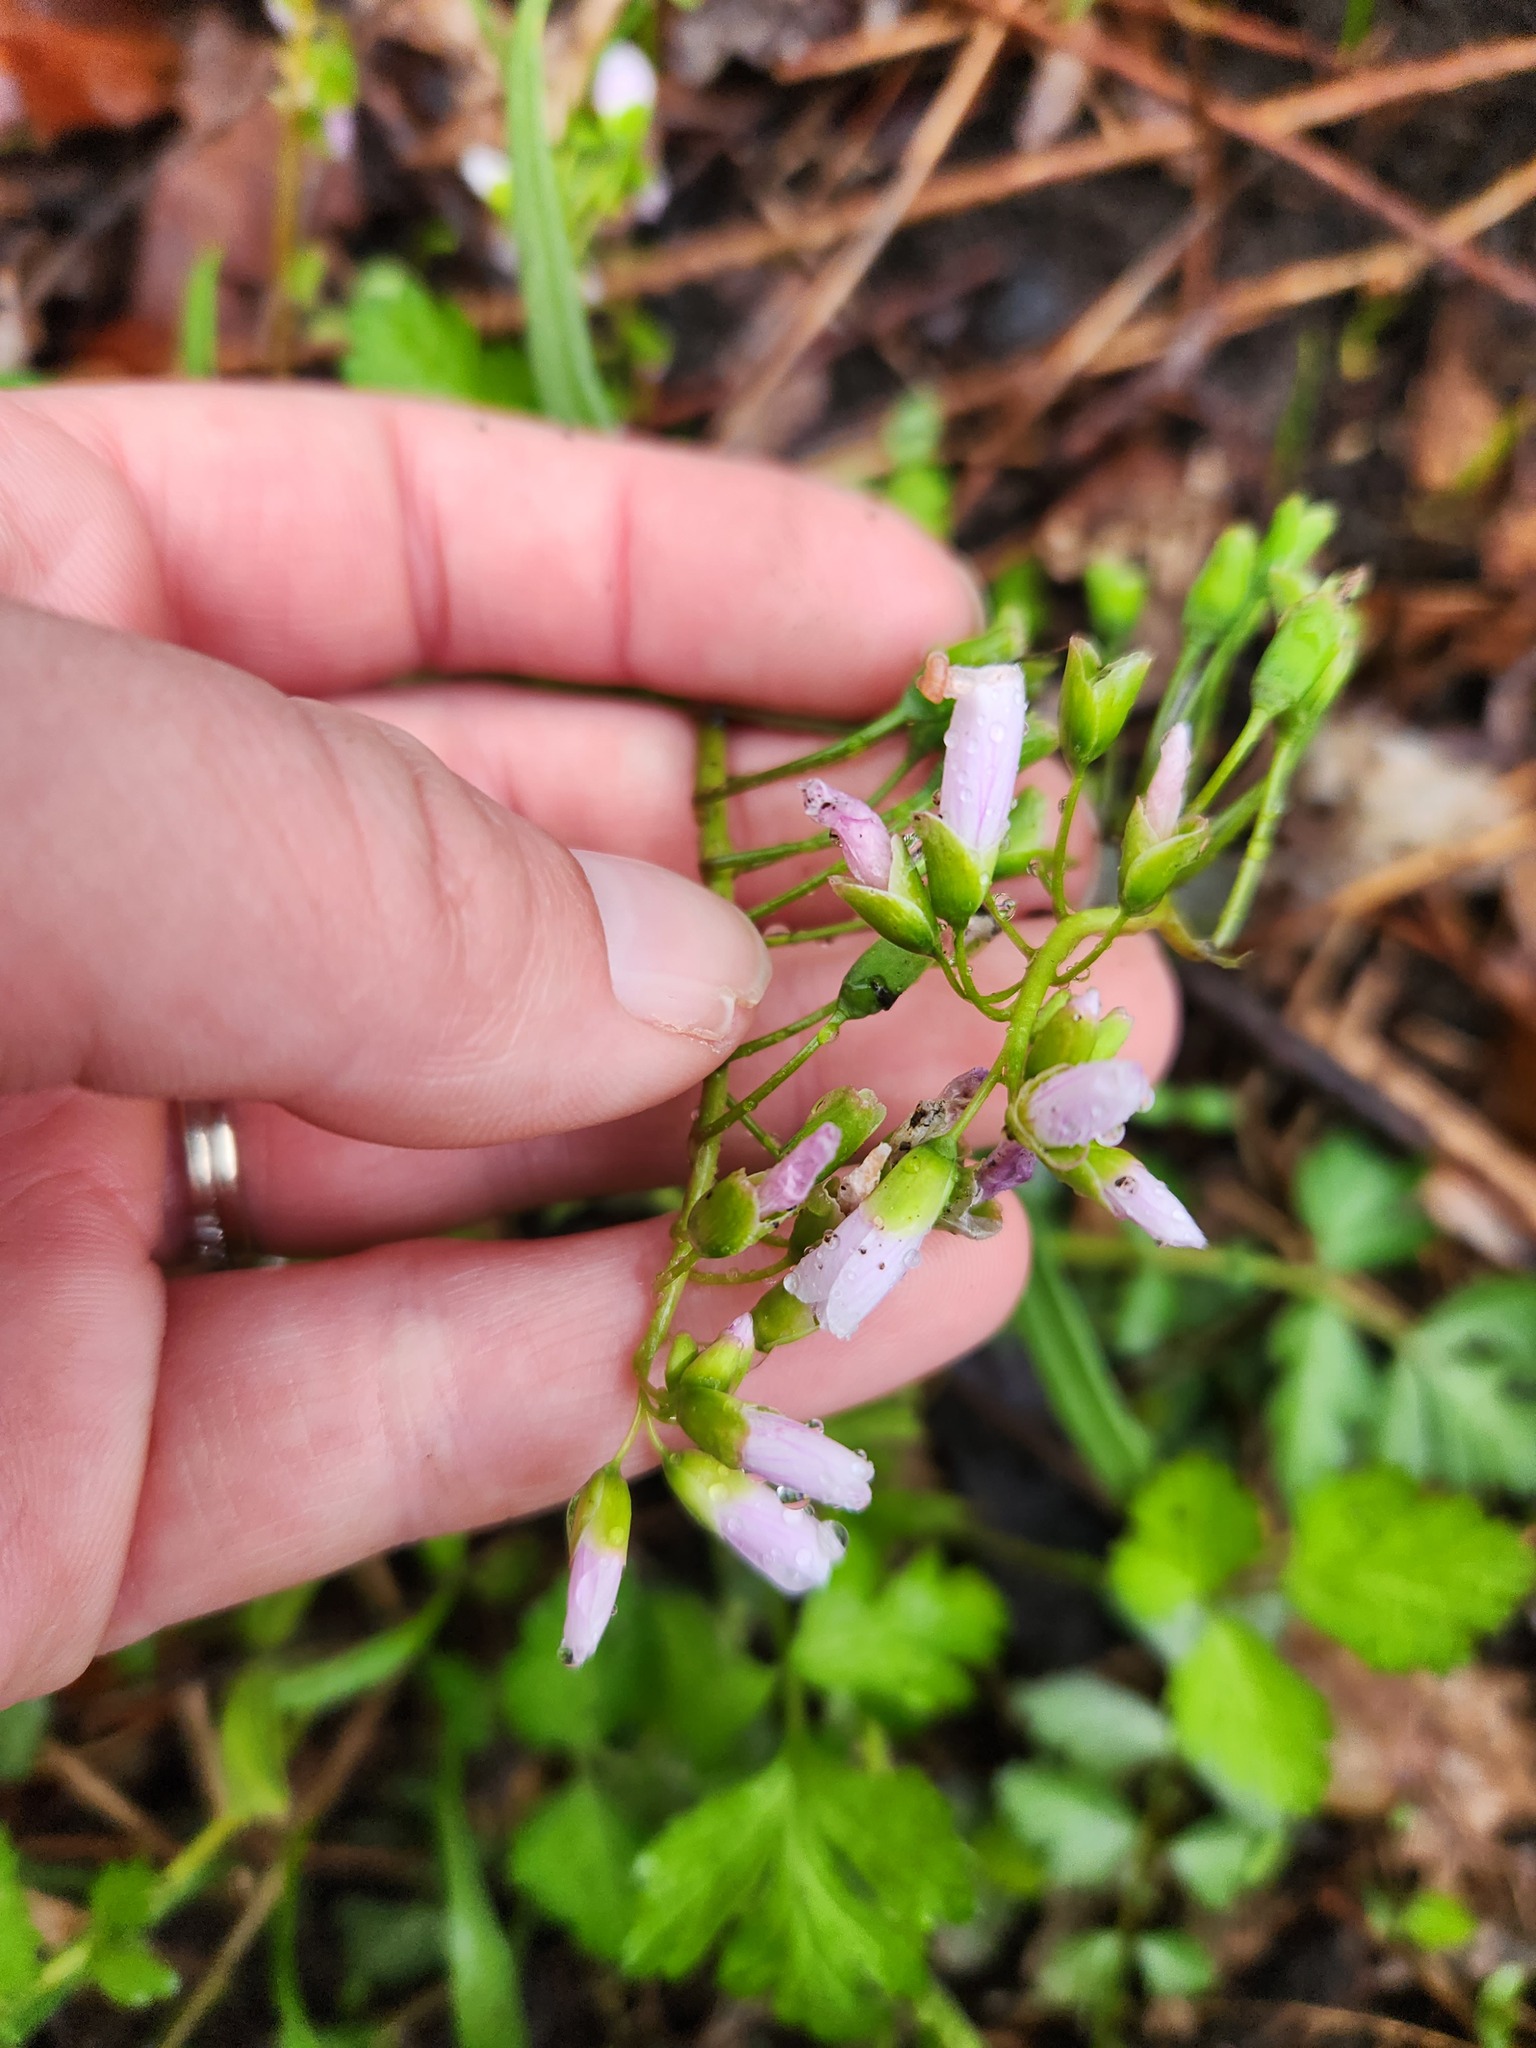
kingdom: Plantae
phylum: Tracheophyta
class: Magnoliopsida
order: Caryophyllales
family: Montiaceae
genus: Claytonia
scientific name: Claytonia virginica
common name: Virginia springbeauty
